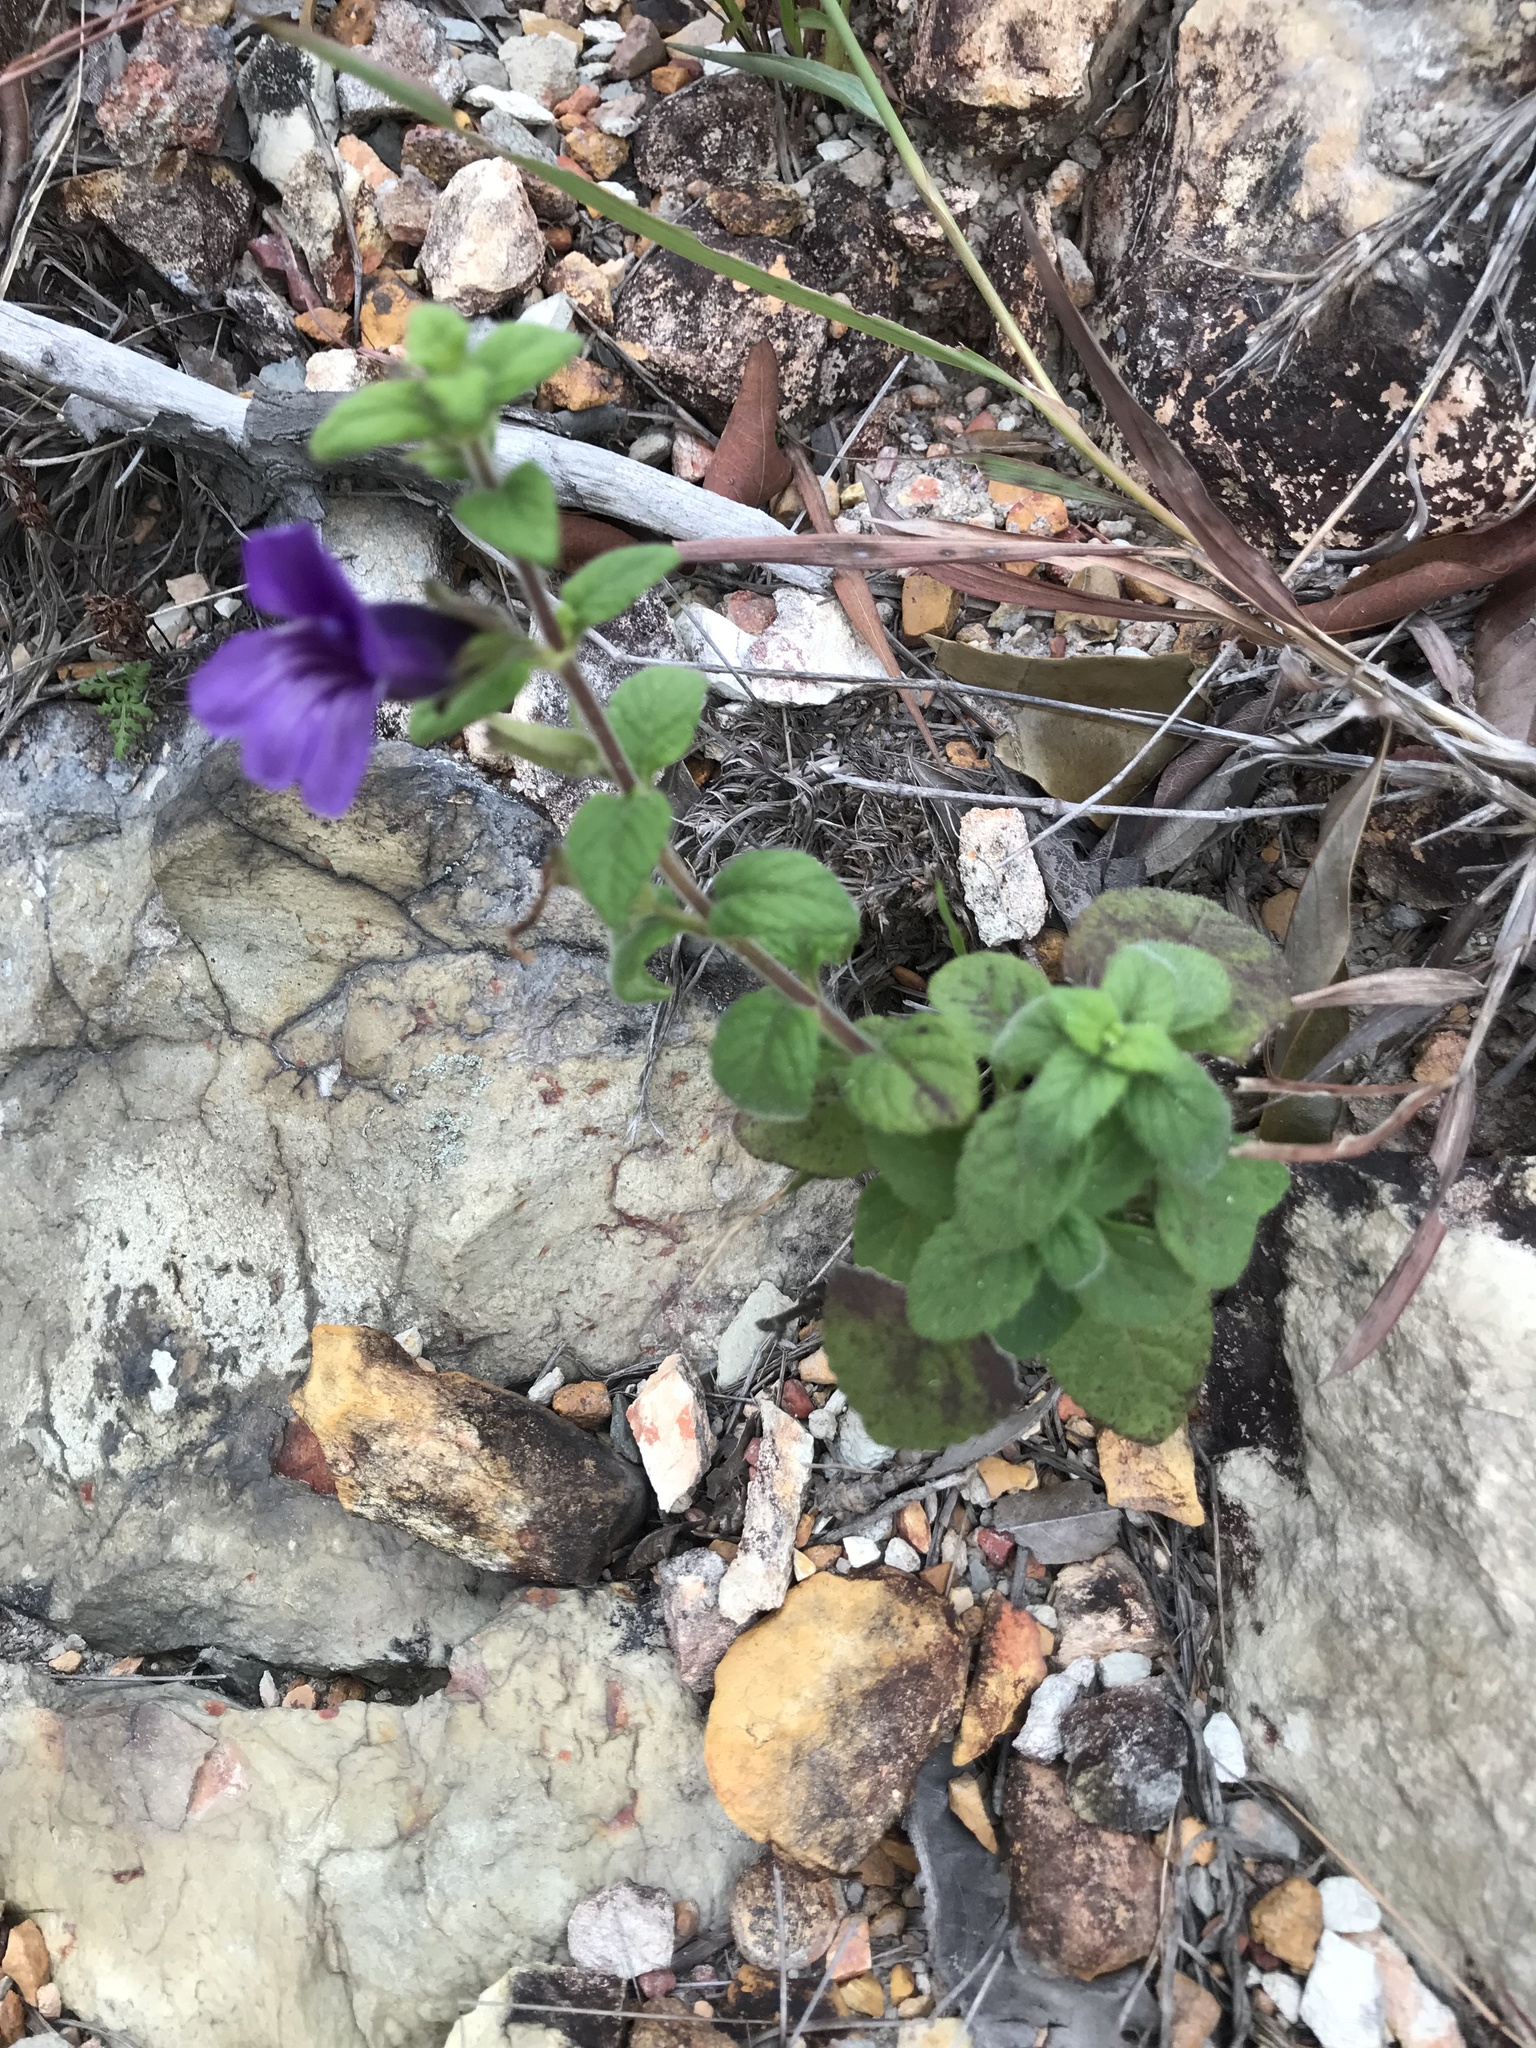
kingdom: Plantae
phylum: Tracheophyta
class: Magnoliopsida
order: Lamiales
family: Plantaginaceae
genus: Adenosma
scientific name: Adenosma glutinosa
